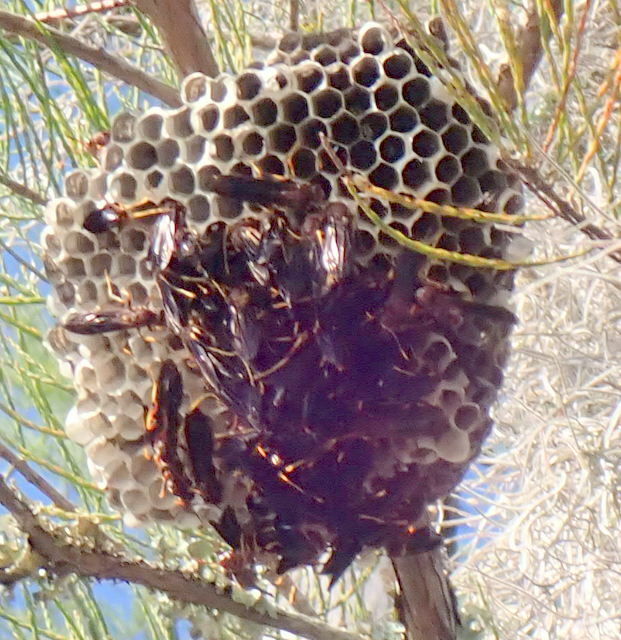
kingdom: Animalia
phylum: Arthropoda
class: Insecta
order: Hymenoptera
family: Eumenidae
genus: Polistes
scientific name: Polistes annularis
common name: Ringed paper wasp
